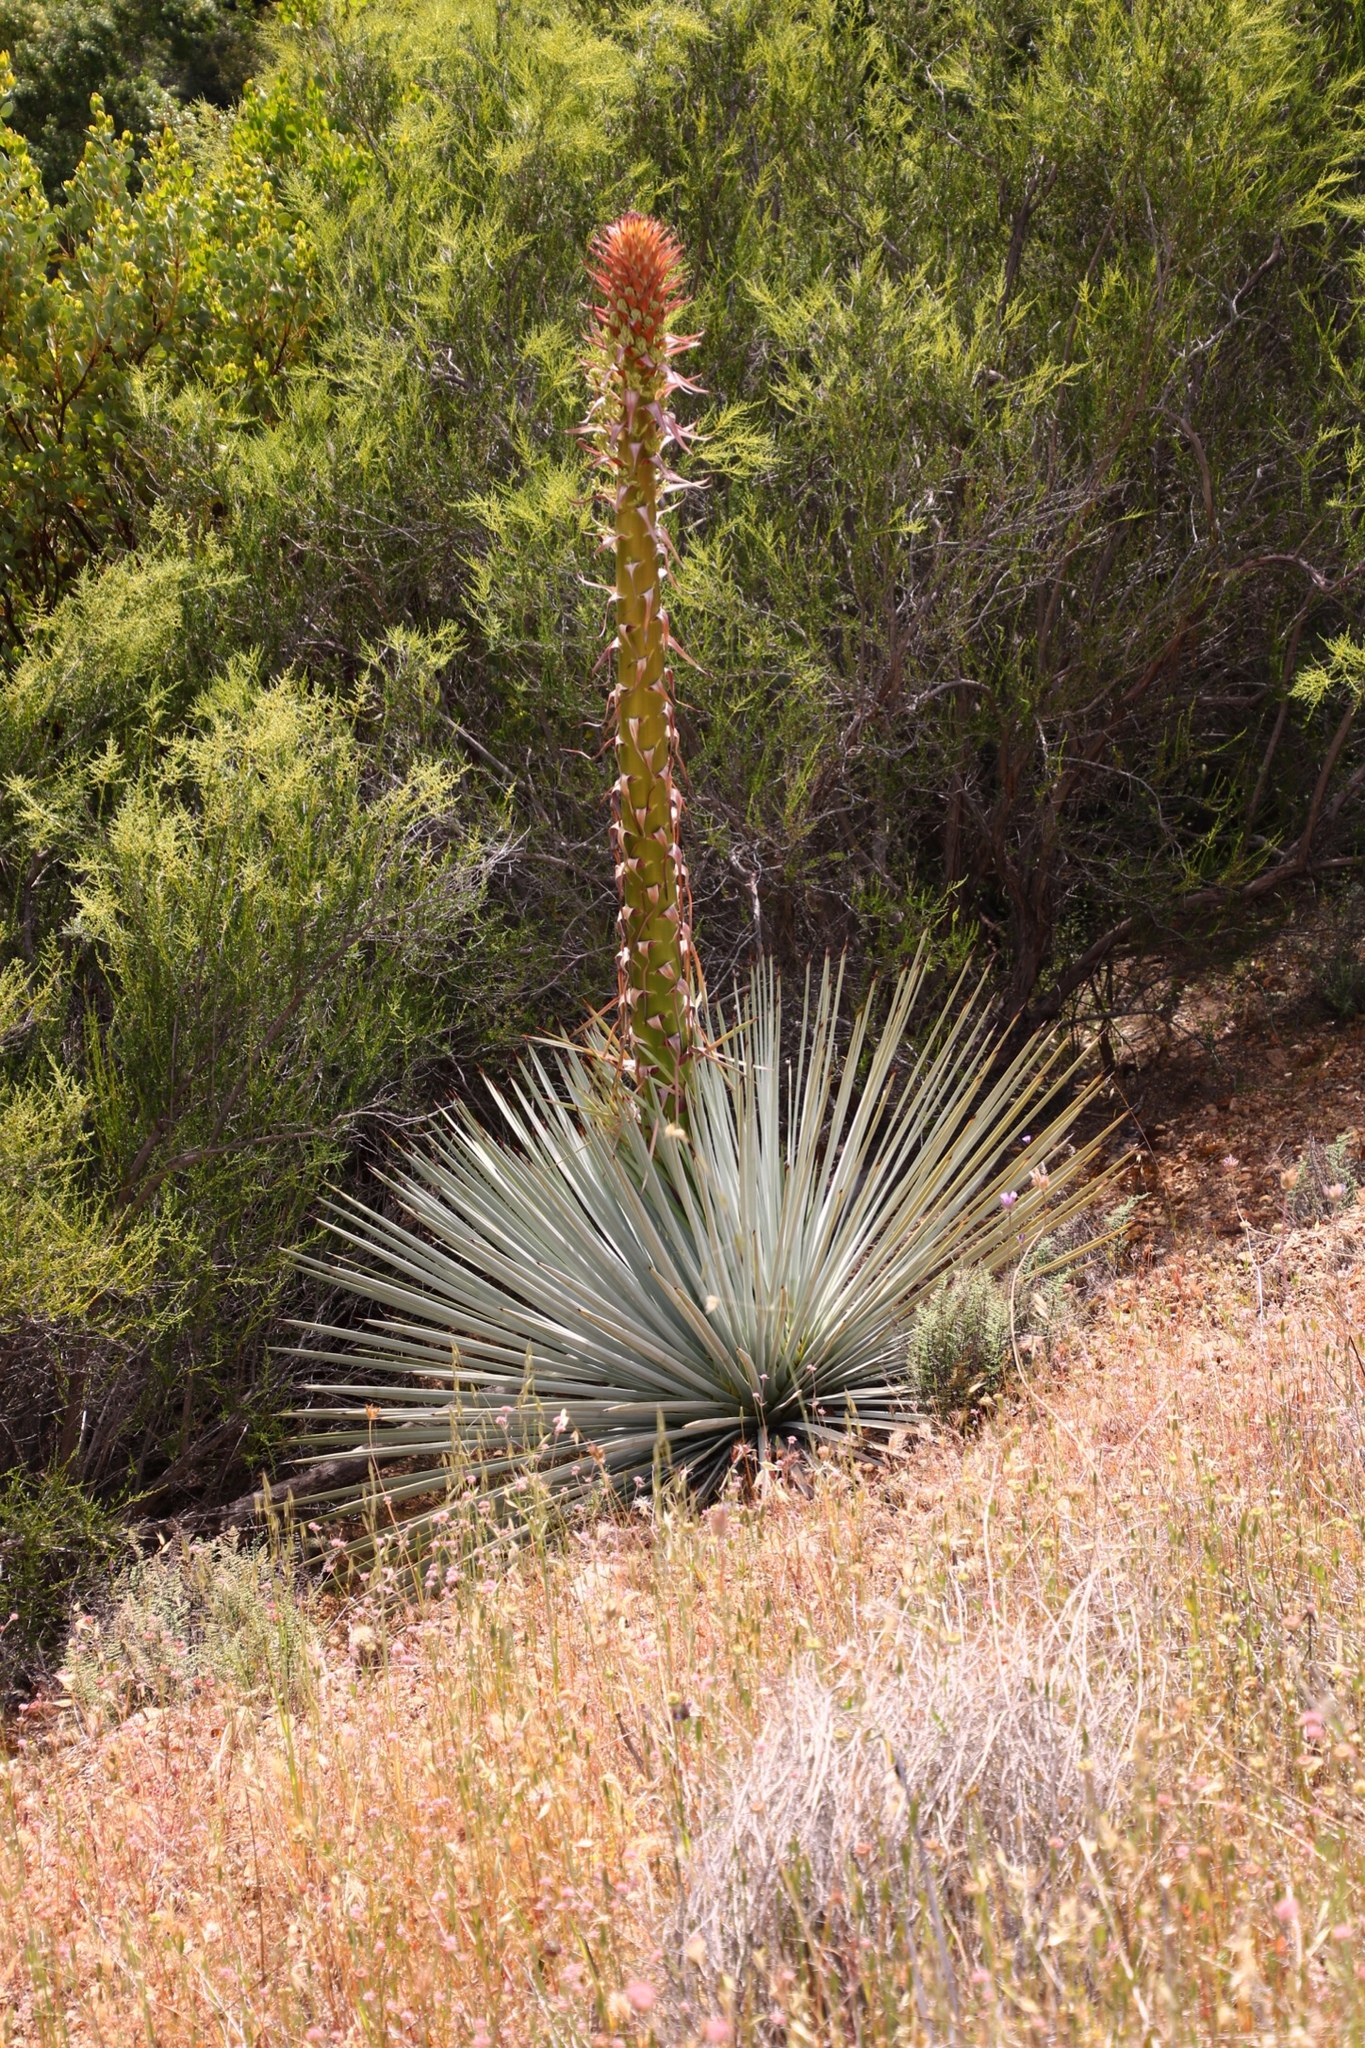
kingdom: Plantae
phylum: Tracheophyta
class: Liliopsida
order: Asparagales
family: Asparagaceae
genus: Hesperoyucca
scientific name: Hesperoyucca whipplei
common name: Our lord's-candle
